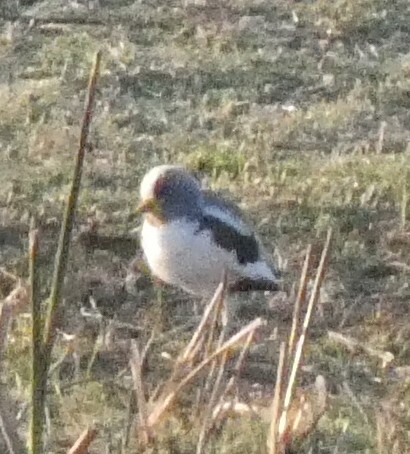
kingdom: Animalia
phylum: Chordata
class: Aves
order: Charadriiformes
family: Charadriidae
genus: Vanellus
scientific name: Vanellus albiceps
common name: White-crowned lapwing
